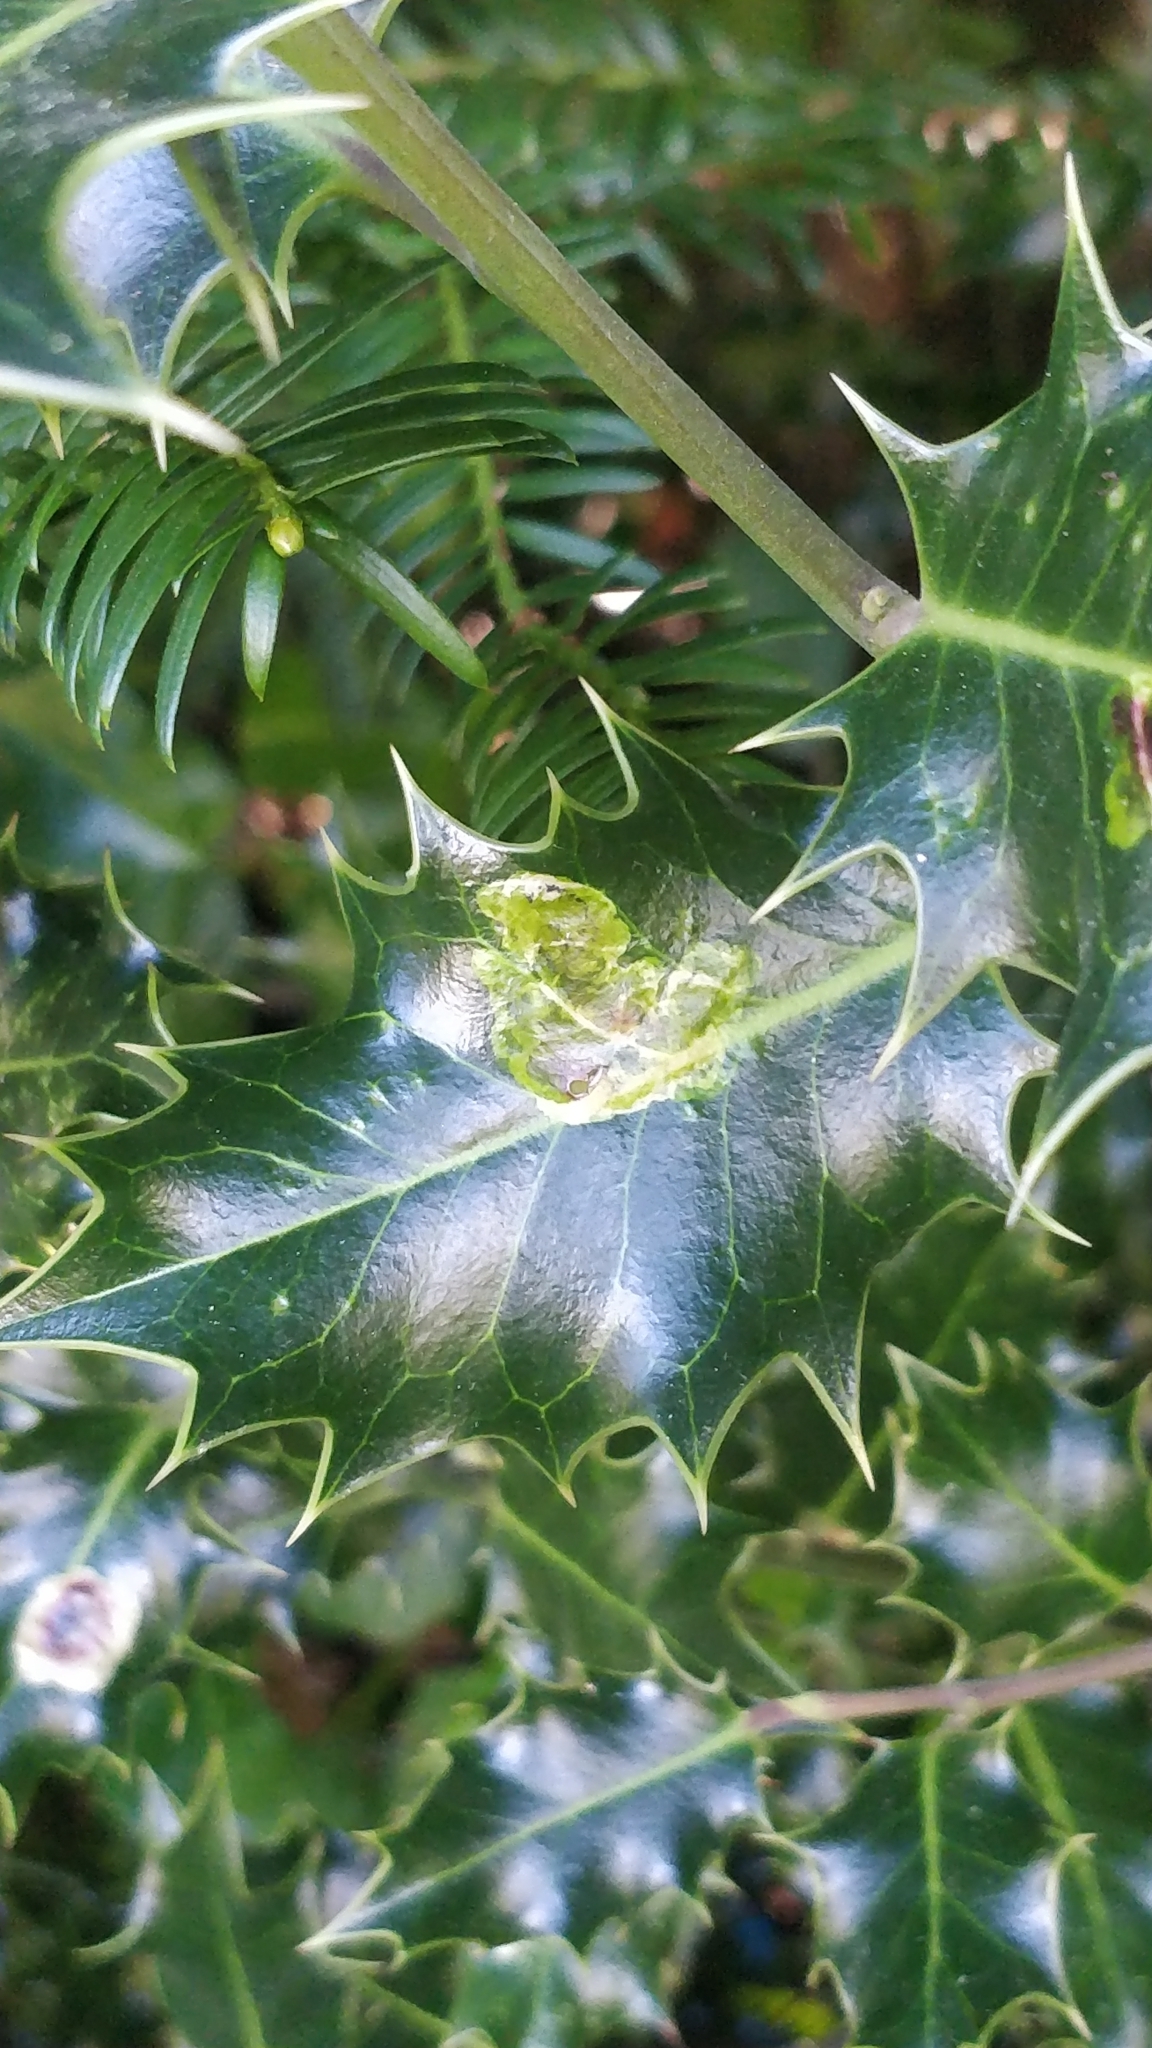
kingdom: Animalia
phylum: Arthropoda
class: Insecta
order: Diptera
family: Agromyzidae
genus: Phytomyza
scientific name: Phytomyza ilicis
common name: Holly leafminer
